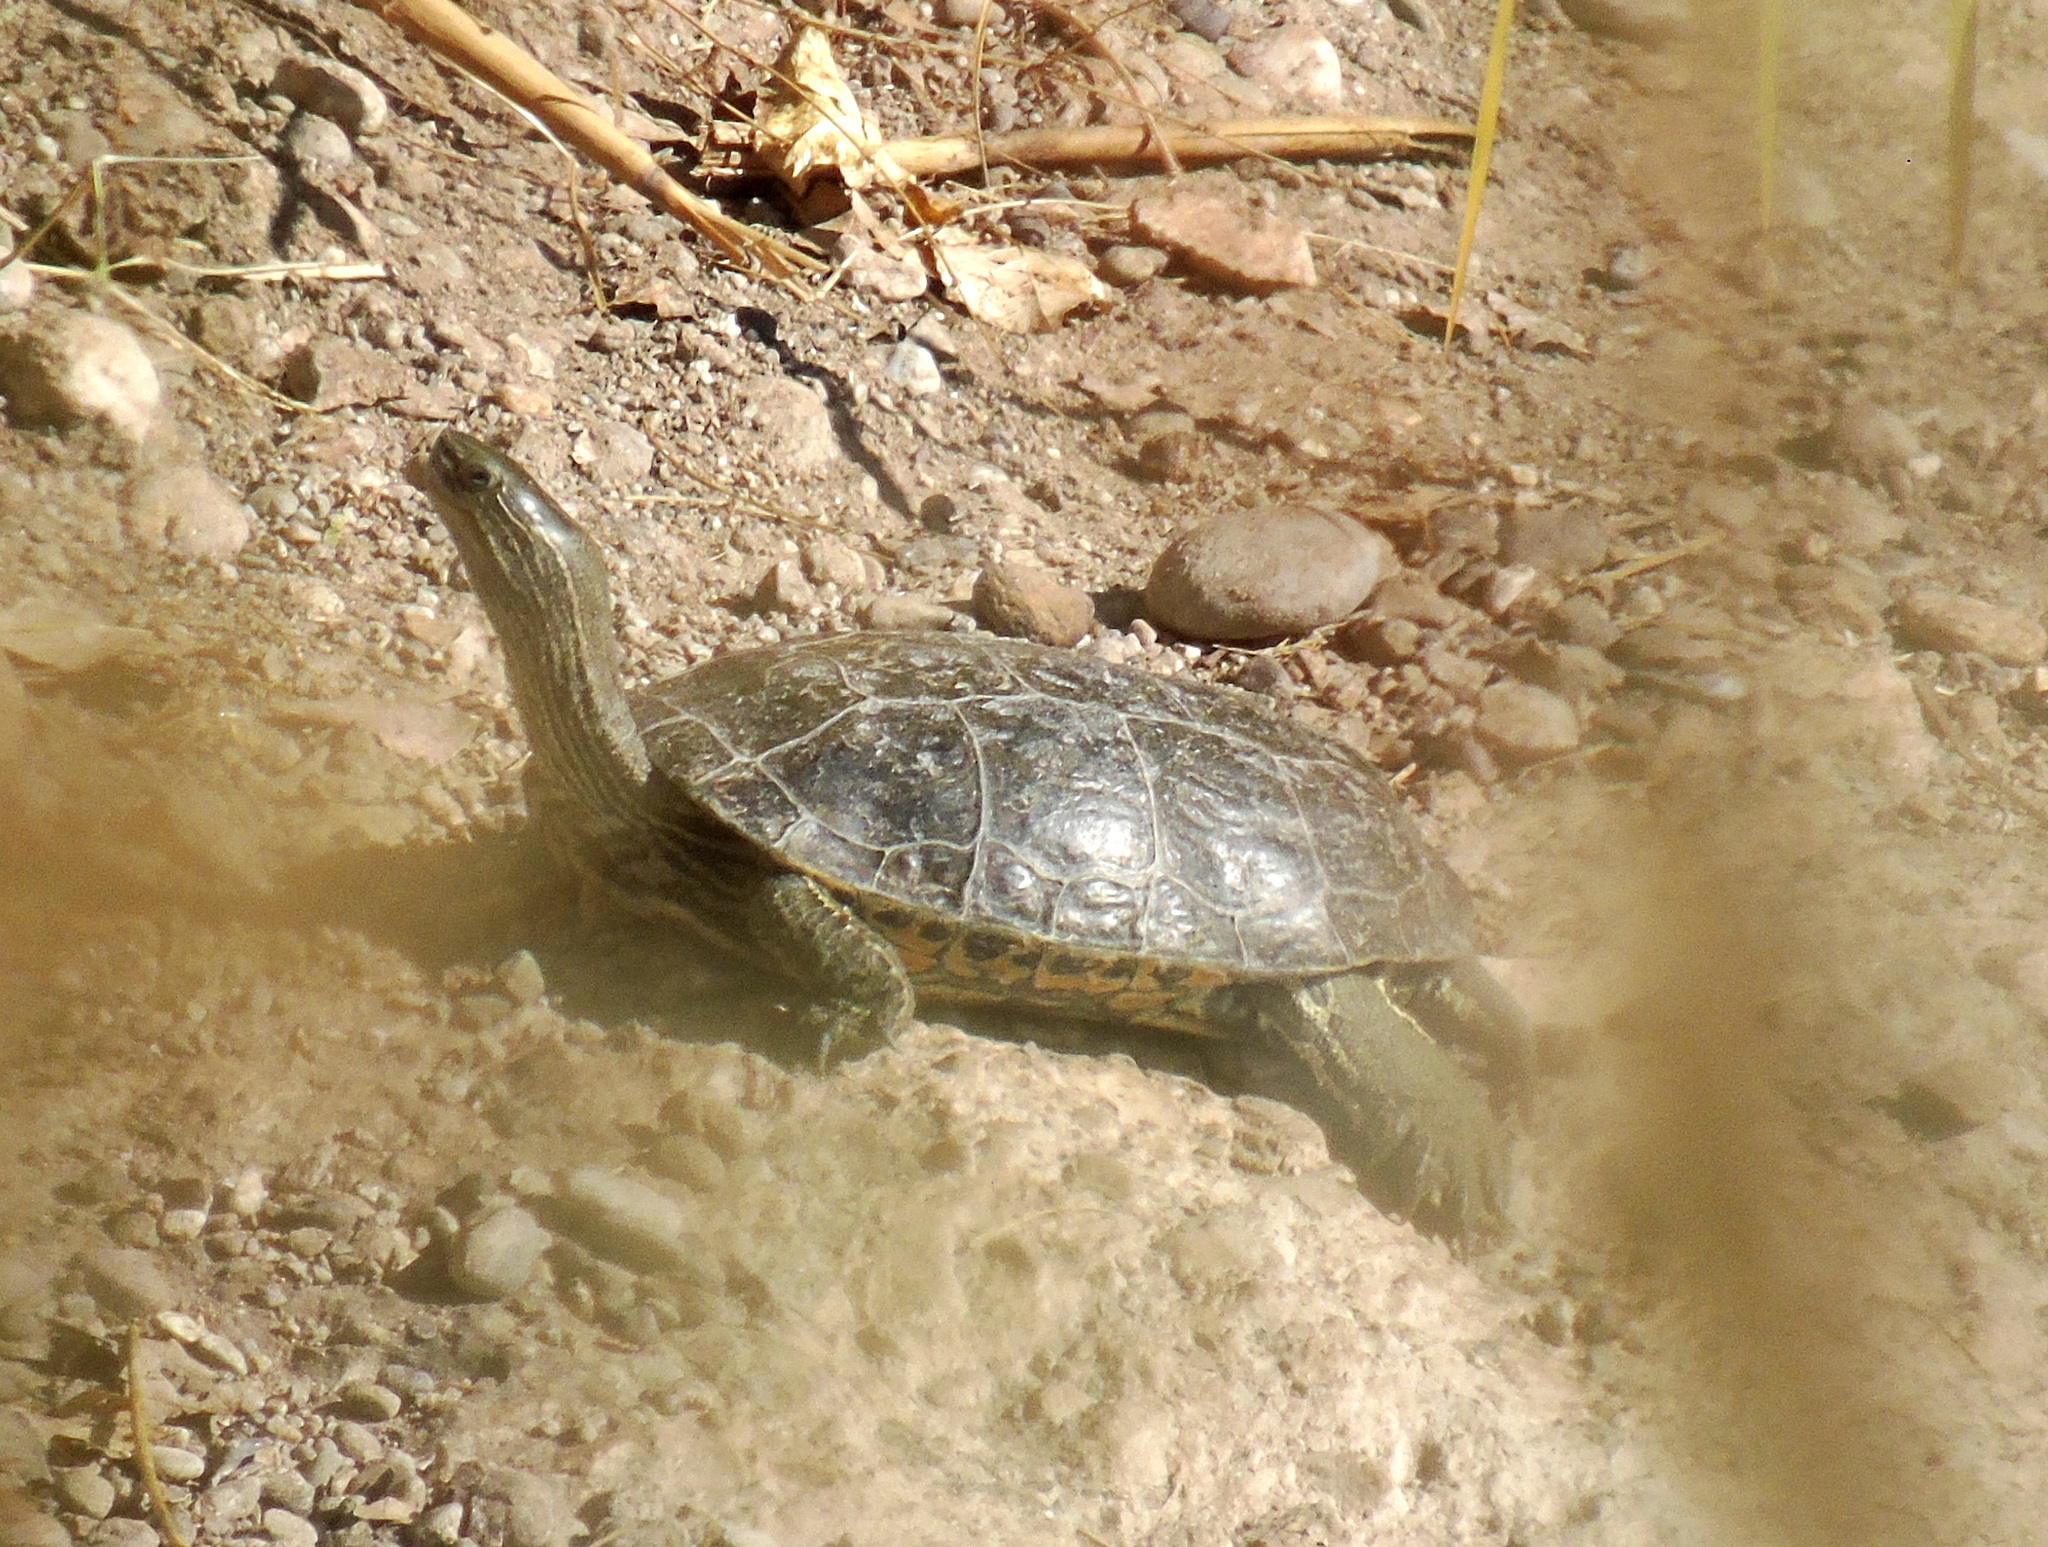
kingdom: Animalia
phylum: Chordata
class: Testudines
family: Geoemydidae
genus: Mauremys
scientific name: Mauremys caspica
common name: Caspian turtle
